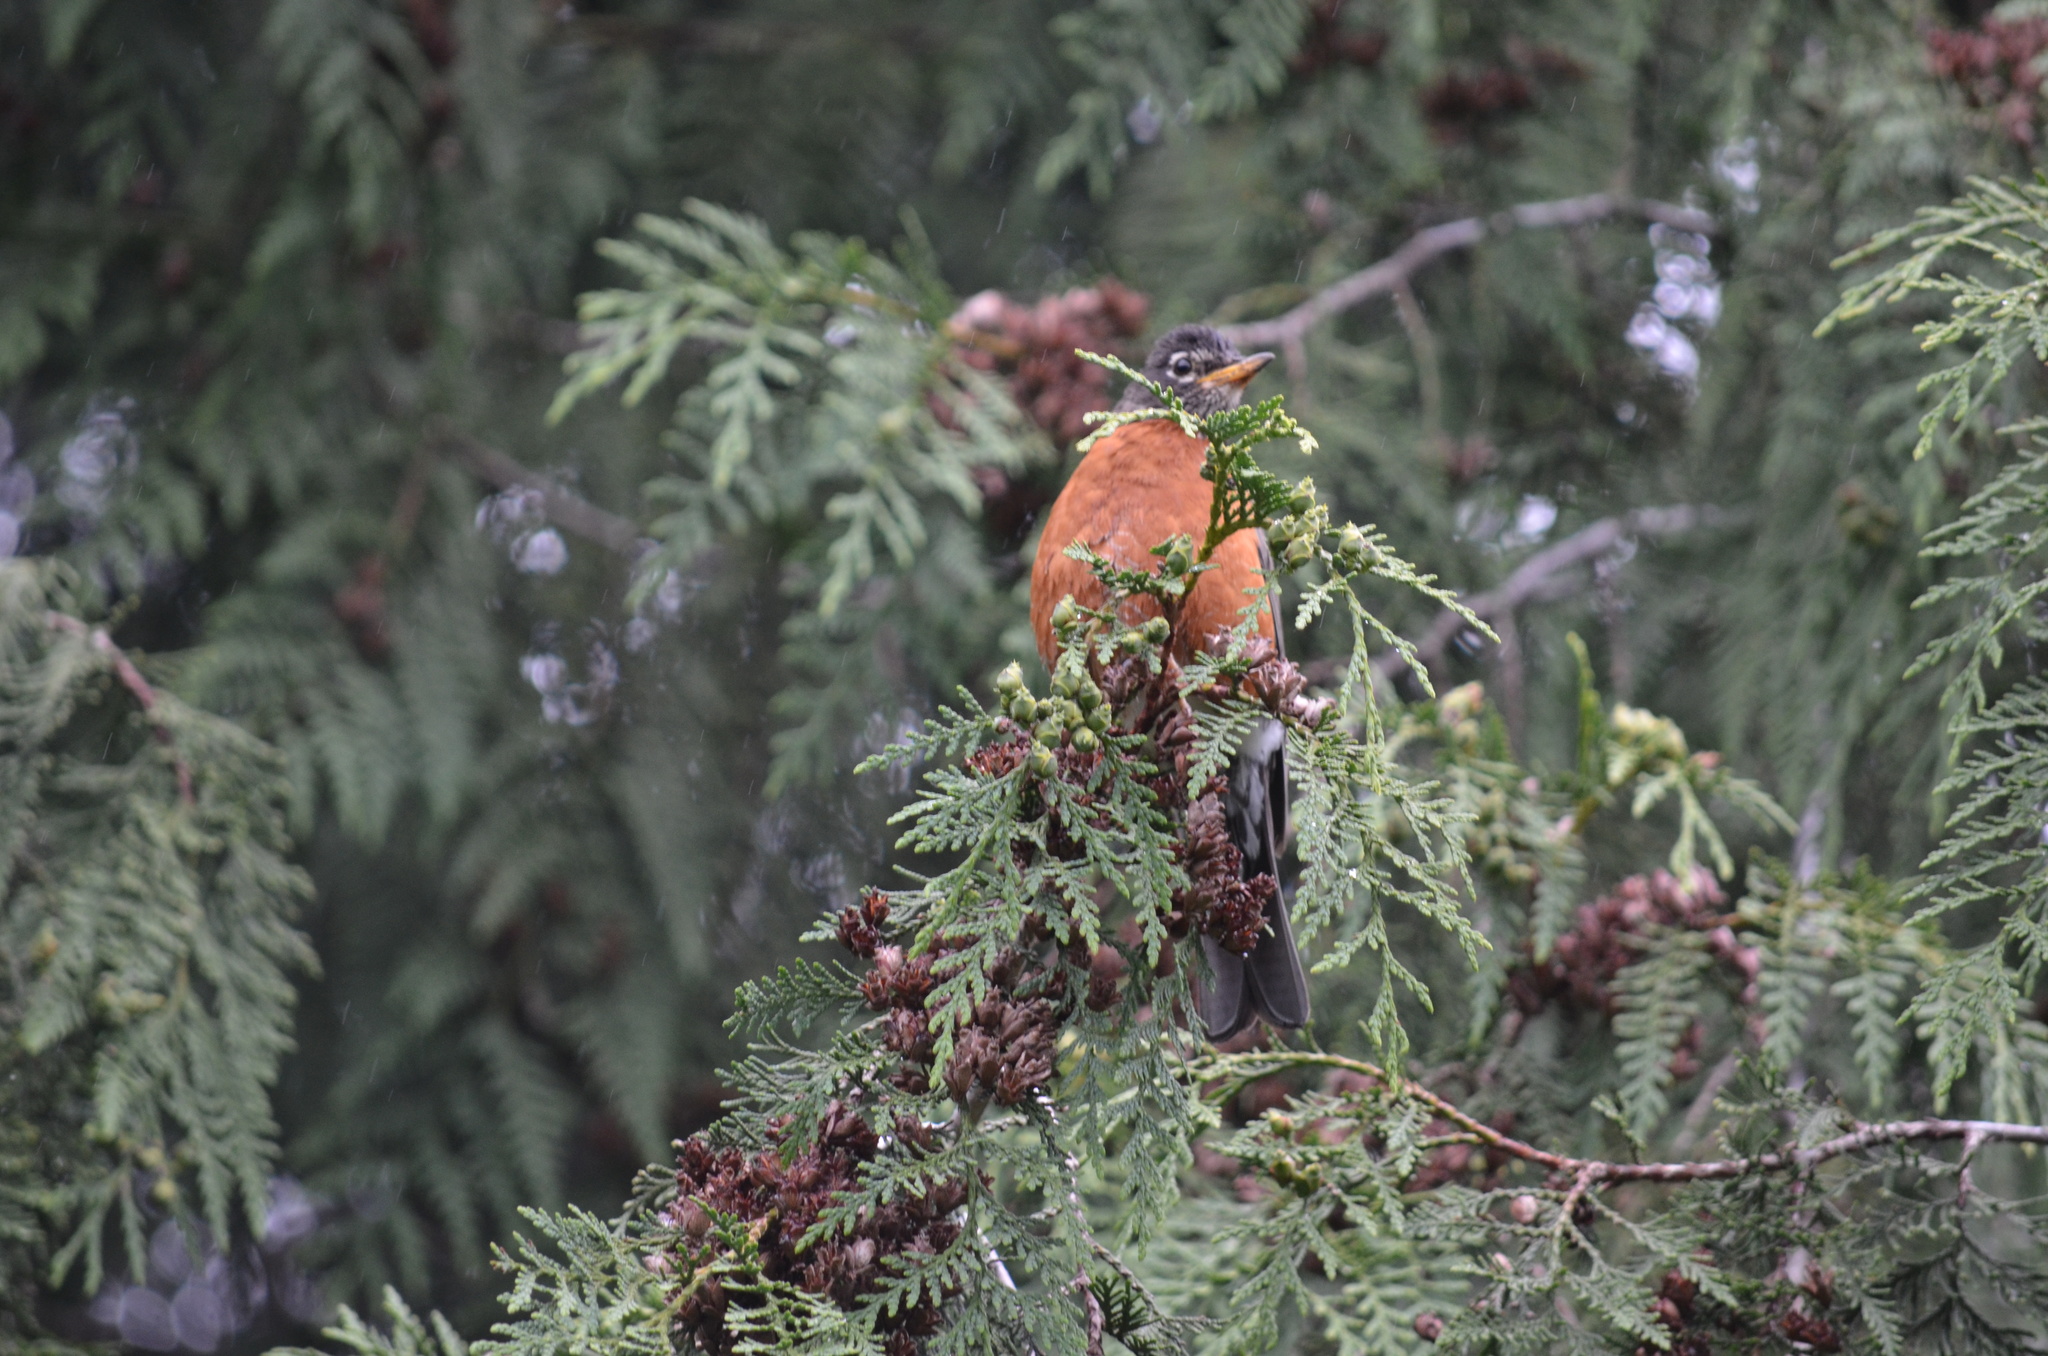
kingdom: Animalia
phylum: Chordata
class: Aves
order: Passeriformes
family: Turdidae
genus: Turdus
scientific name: Turdus migratorius
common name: American robin
